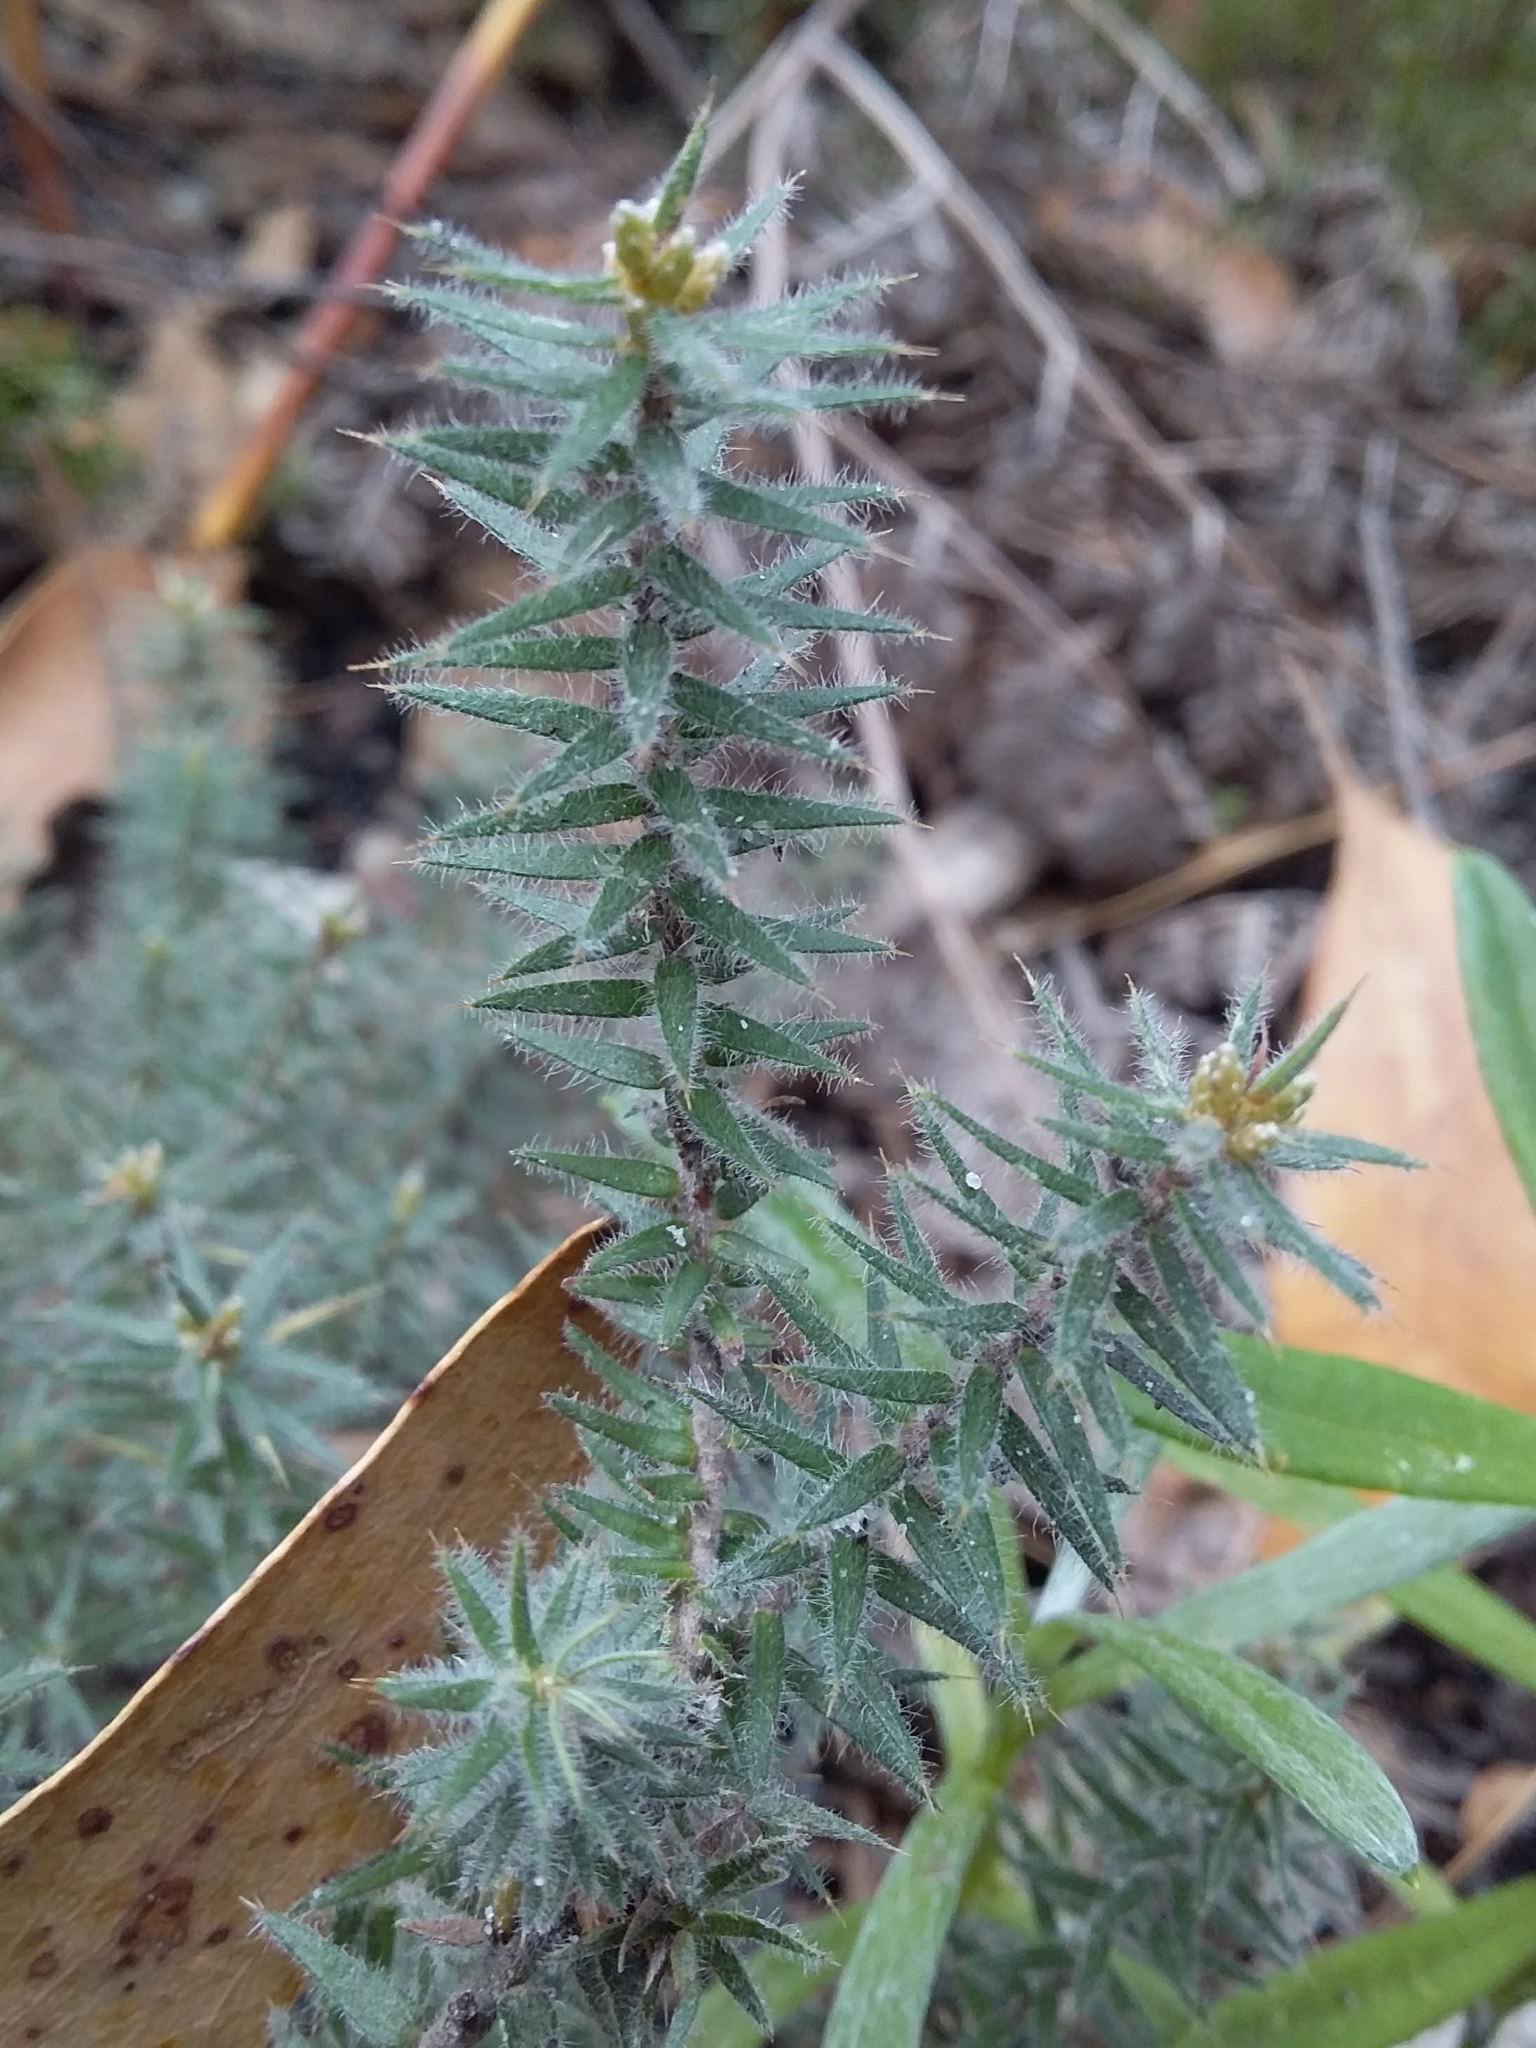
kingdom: Plantae
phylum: Tracheophyta
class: Magnoliopsida
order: Ericales
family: Ericaceae
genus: Acrotriche
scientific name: Acrotriche serrulata
